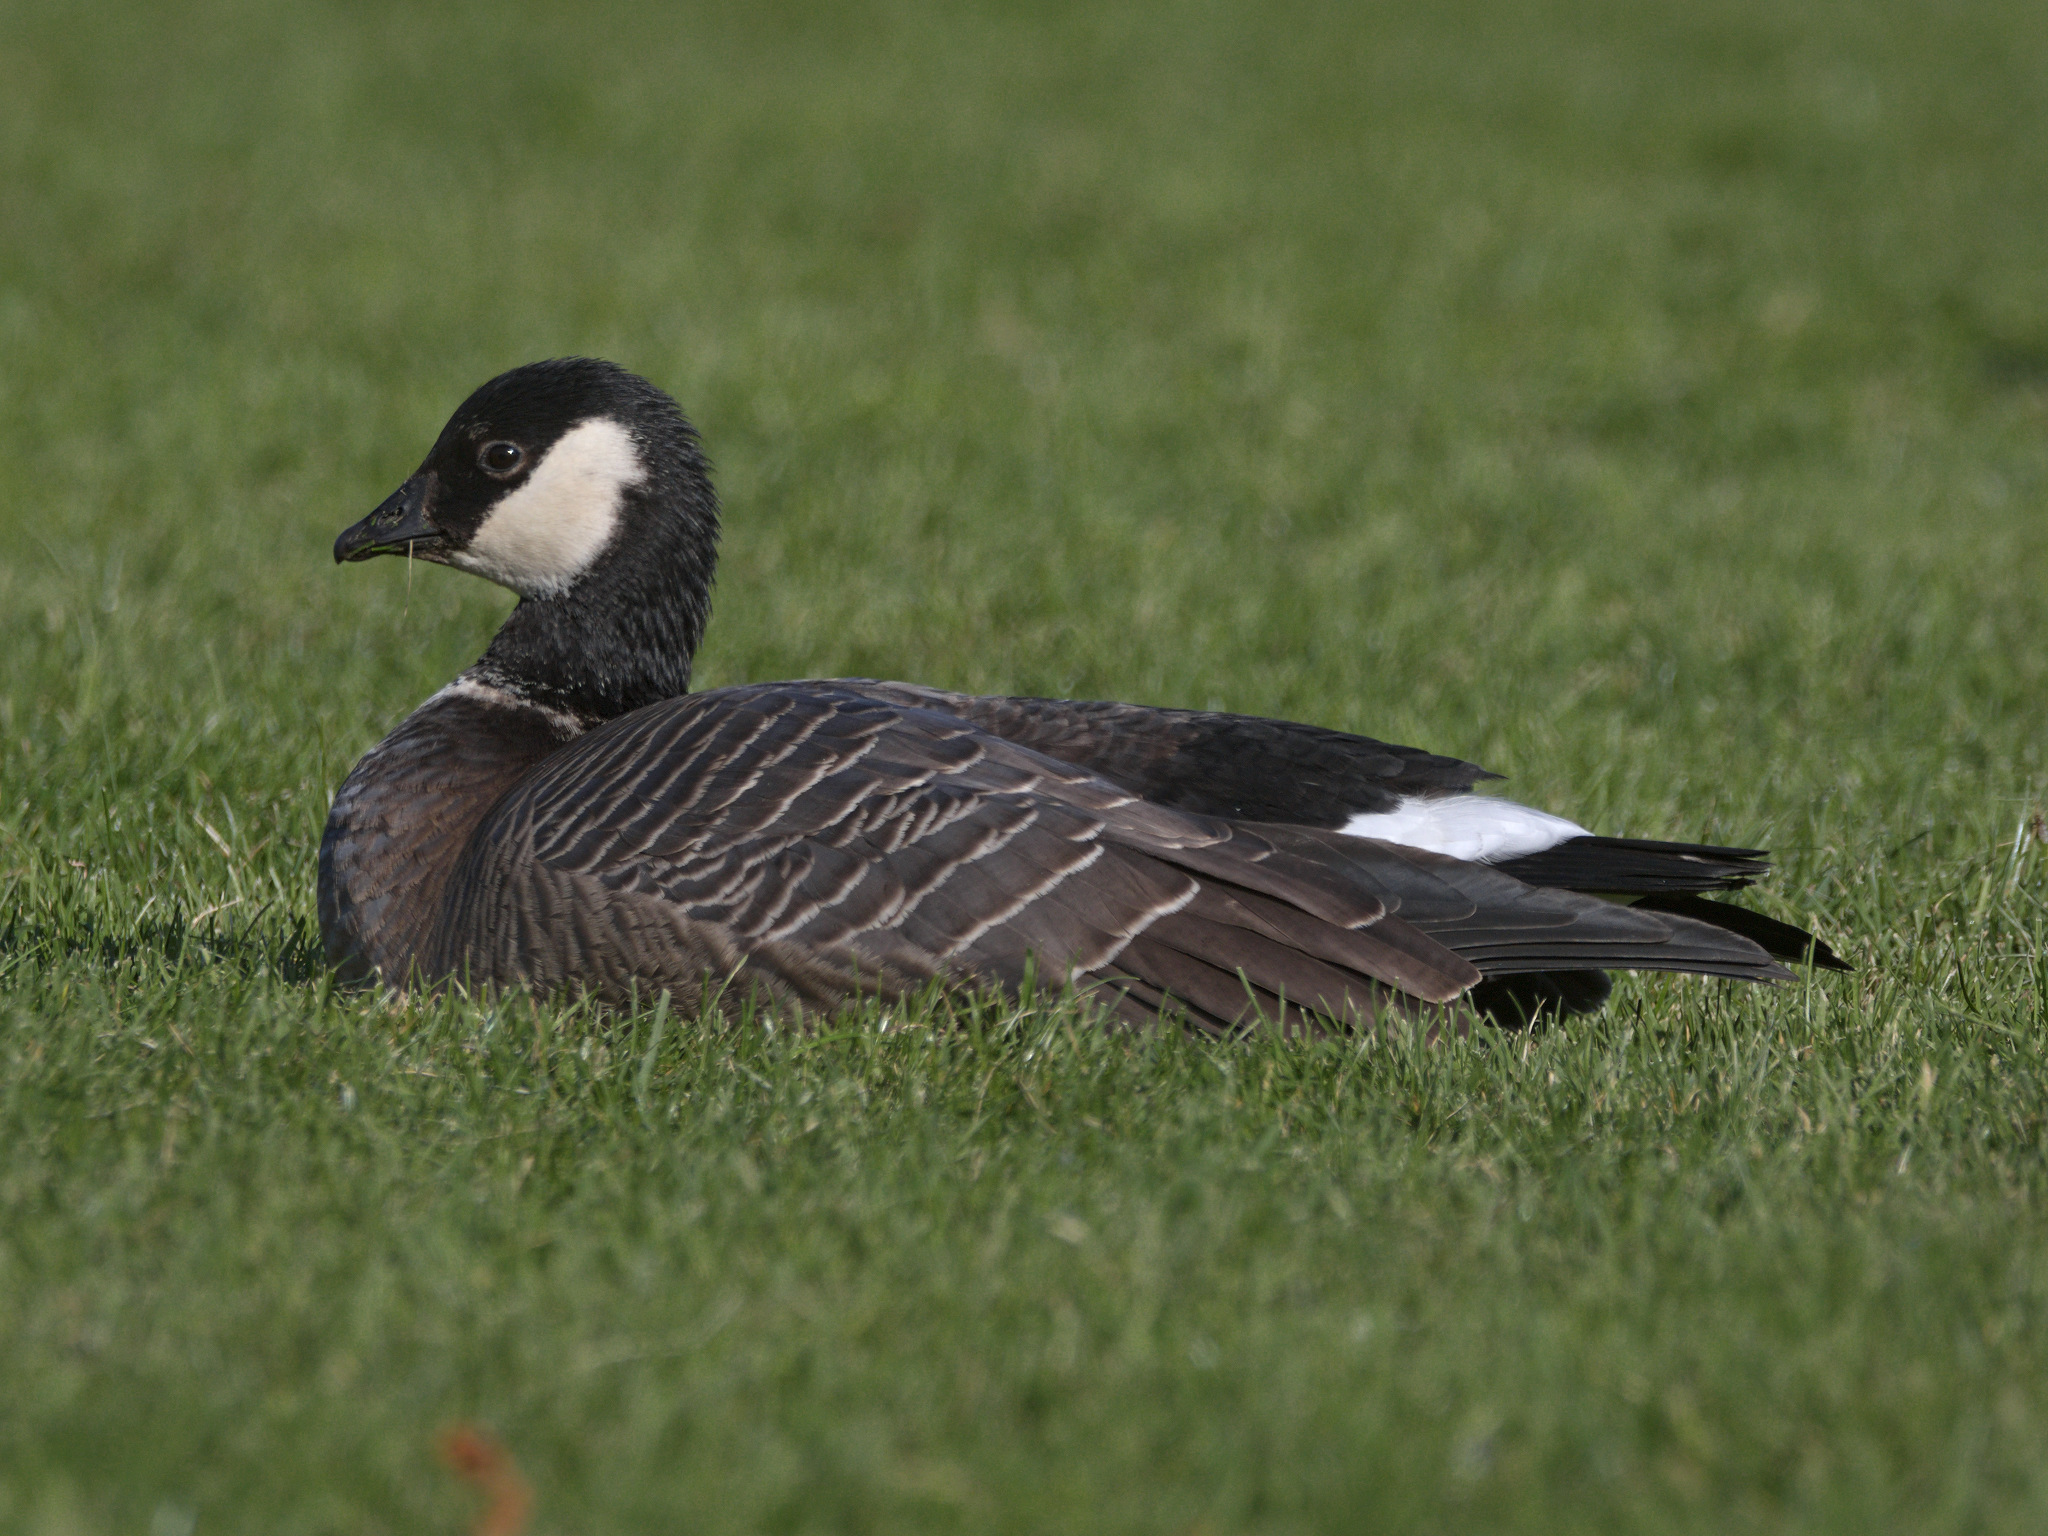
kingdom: Animalia
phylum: Chordata
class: Aves
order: Anseriformes
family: Anatidae
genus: Branta
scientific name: Branta hutchinsii
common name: Cackling goose
